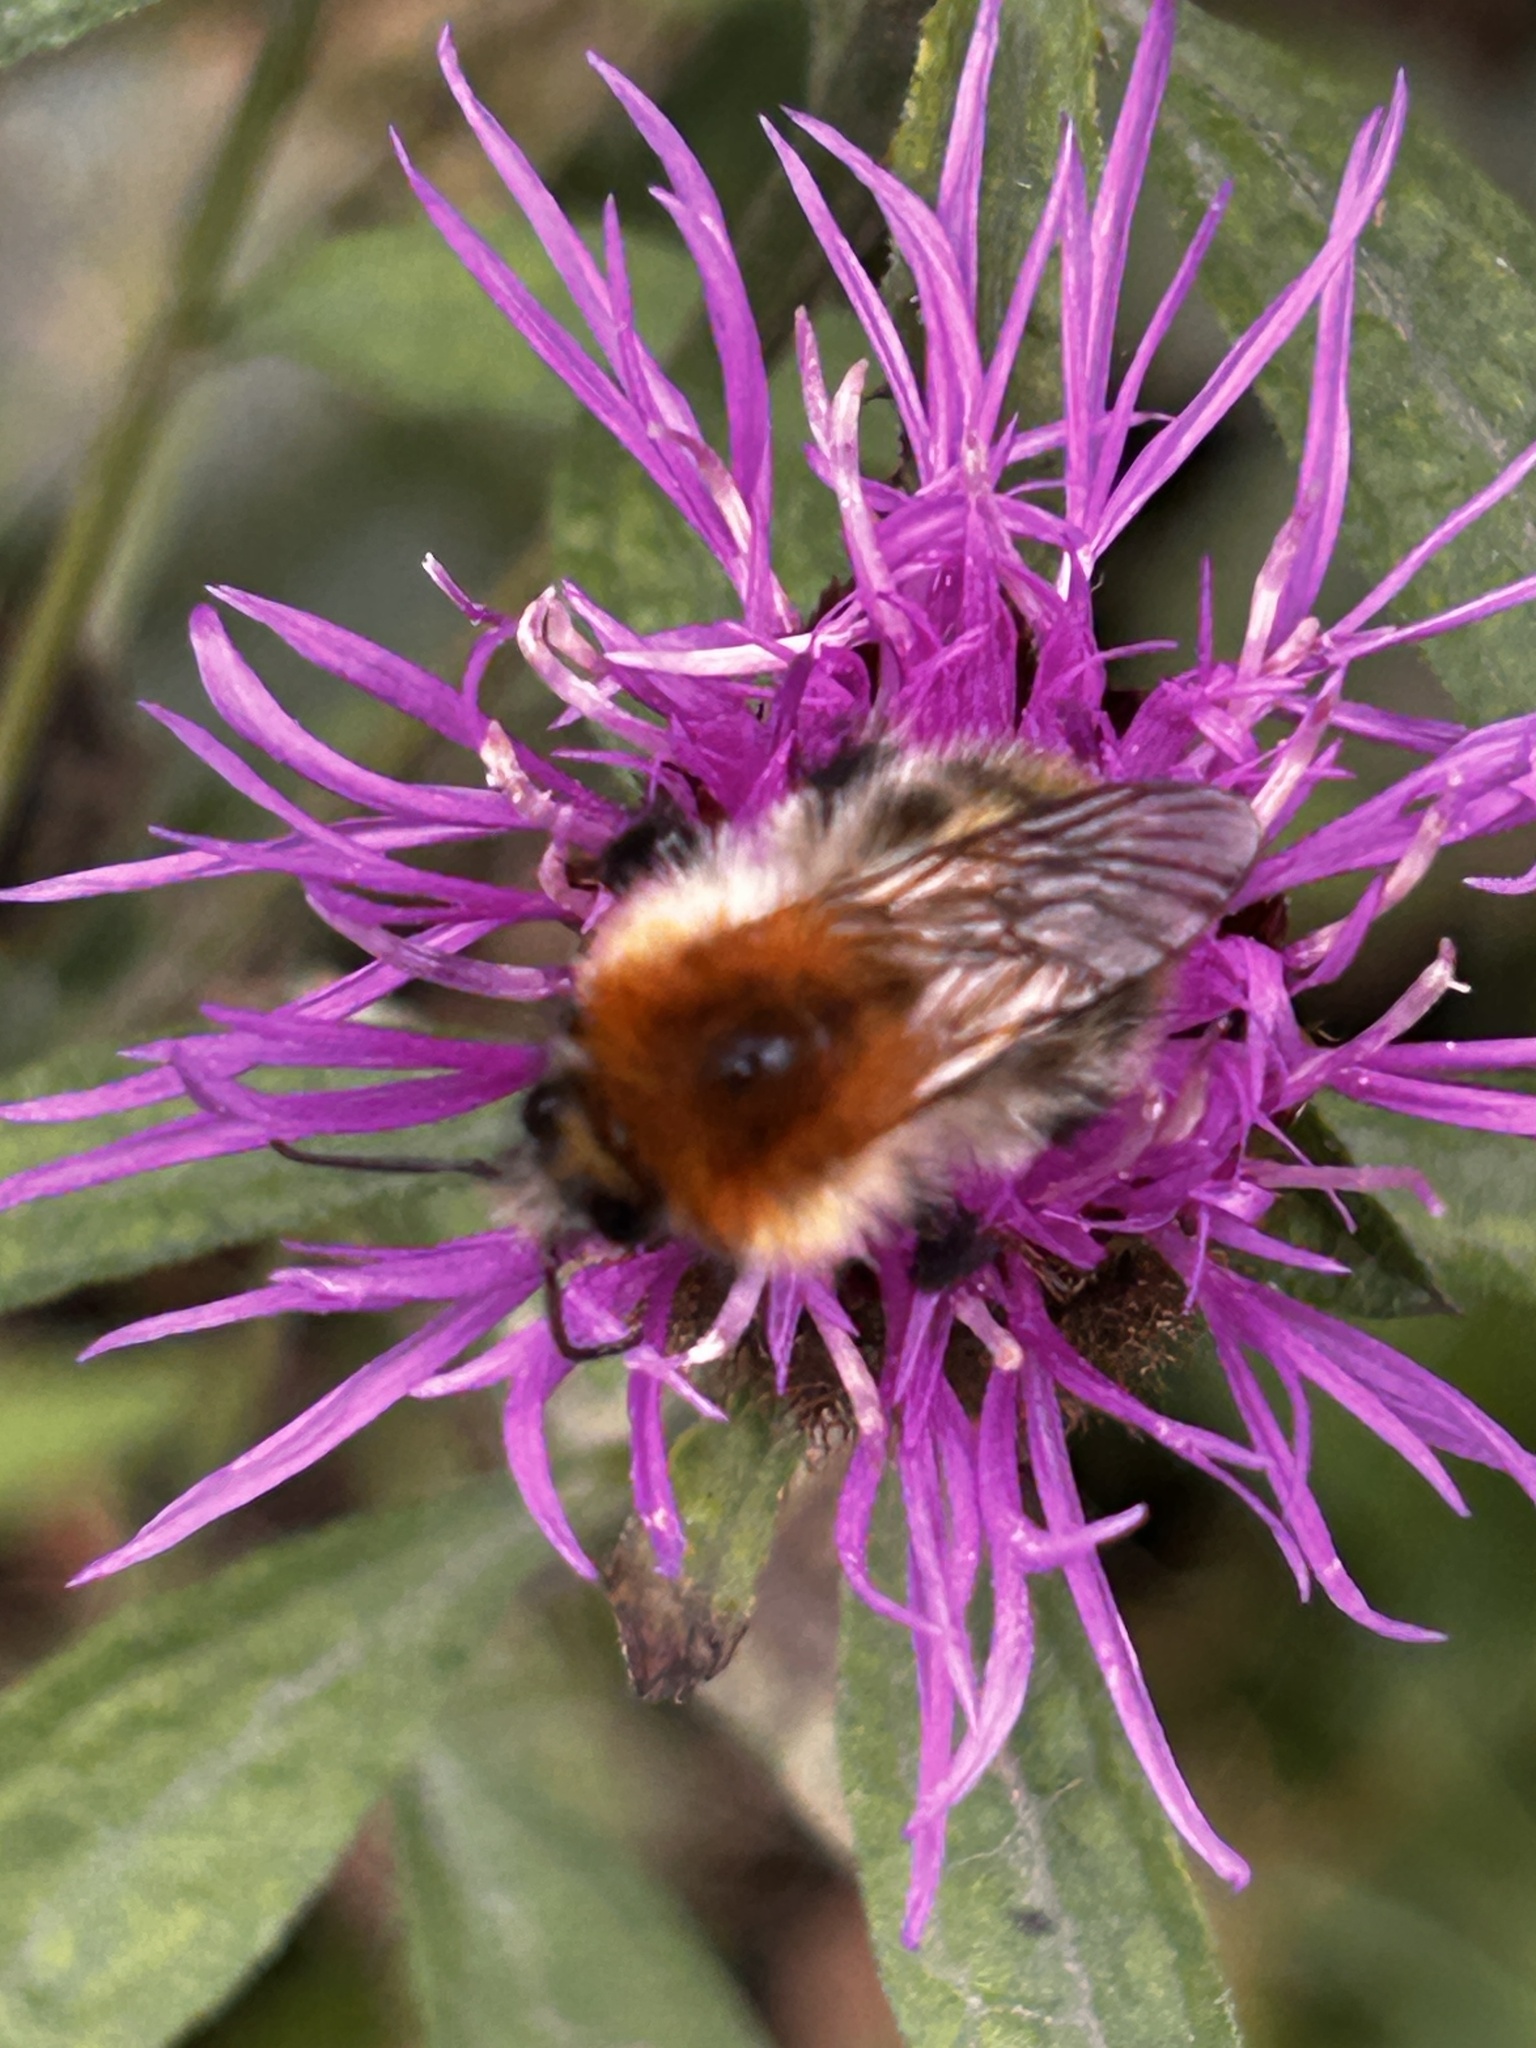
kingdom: Animalia
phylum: Arthropoda
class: Insecta
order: Hymenoptera
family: Apidae
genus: Bombus
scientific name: Bombus pascuorum
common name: Common carder bee
